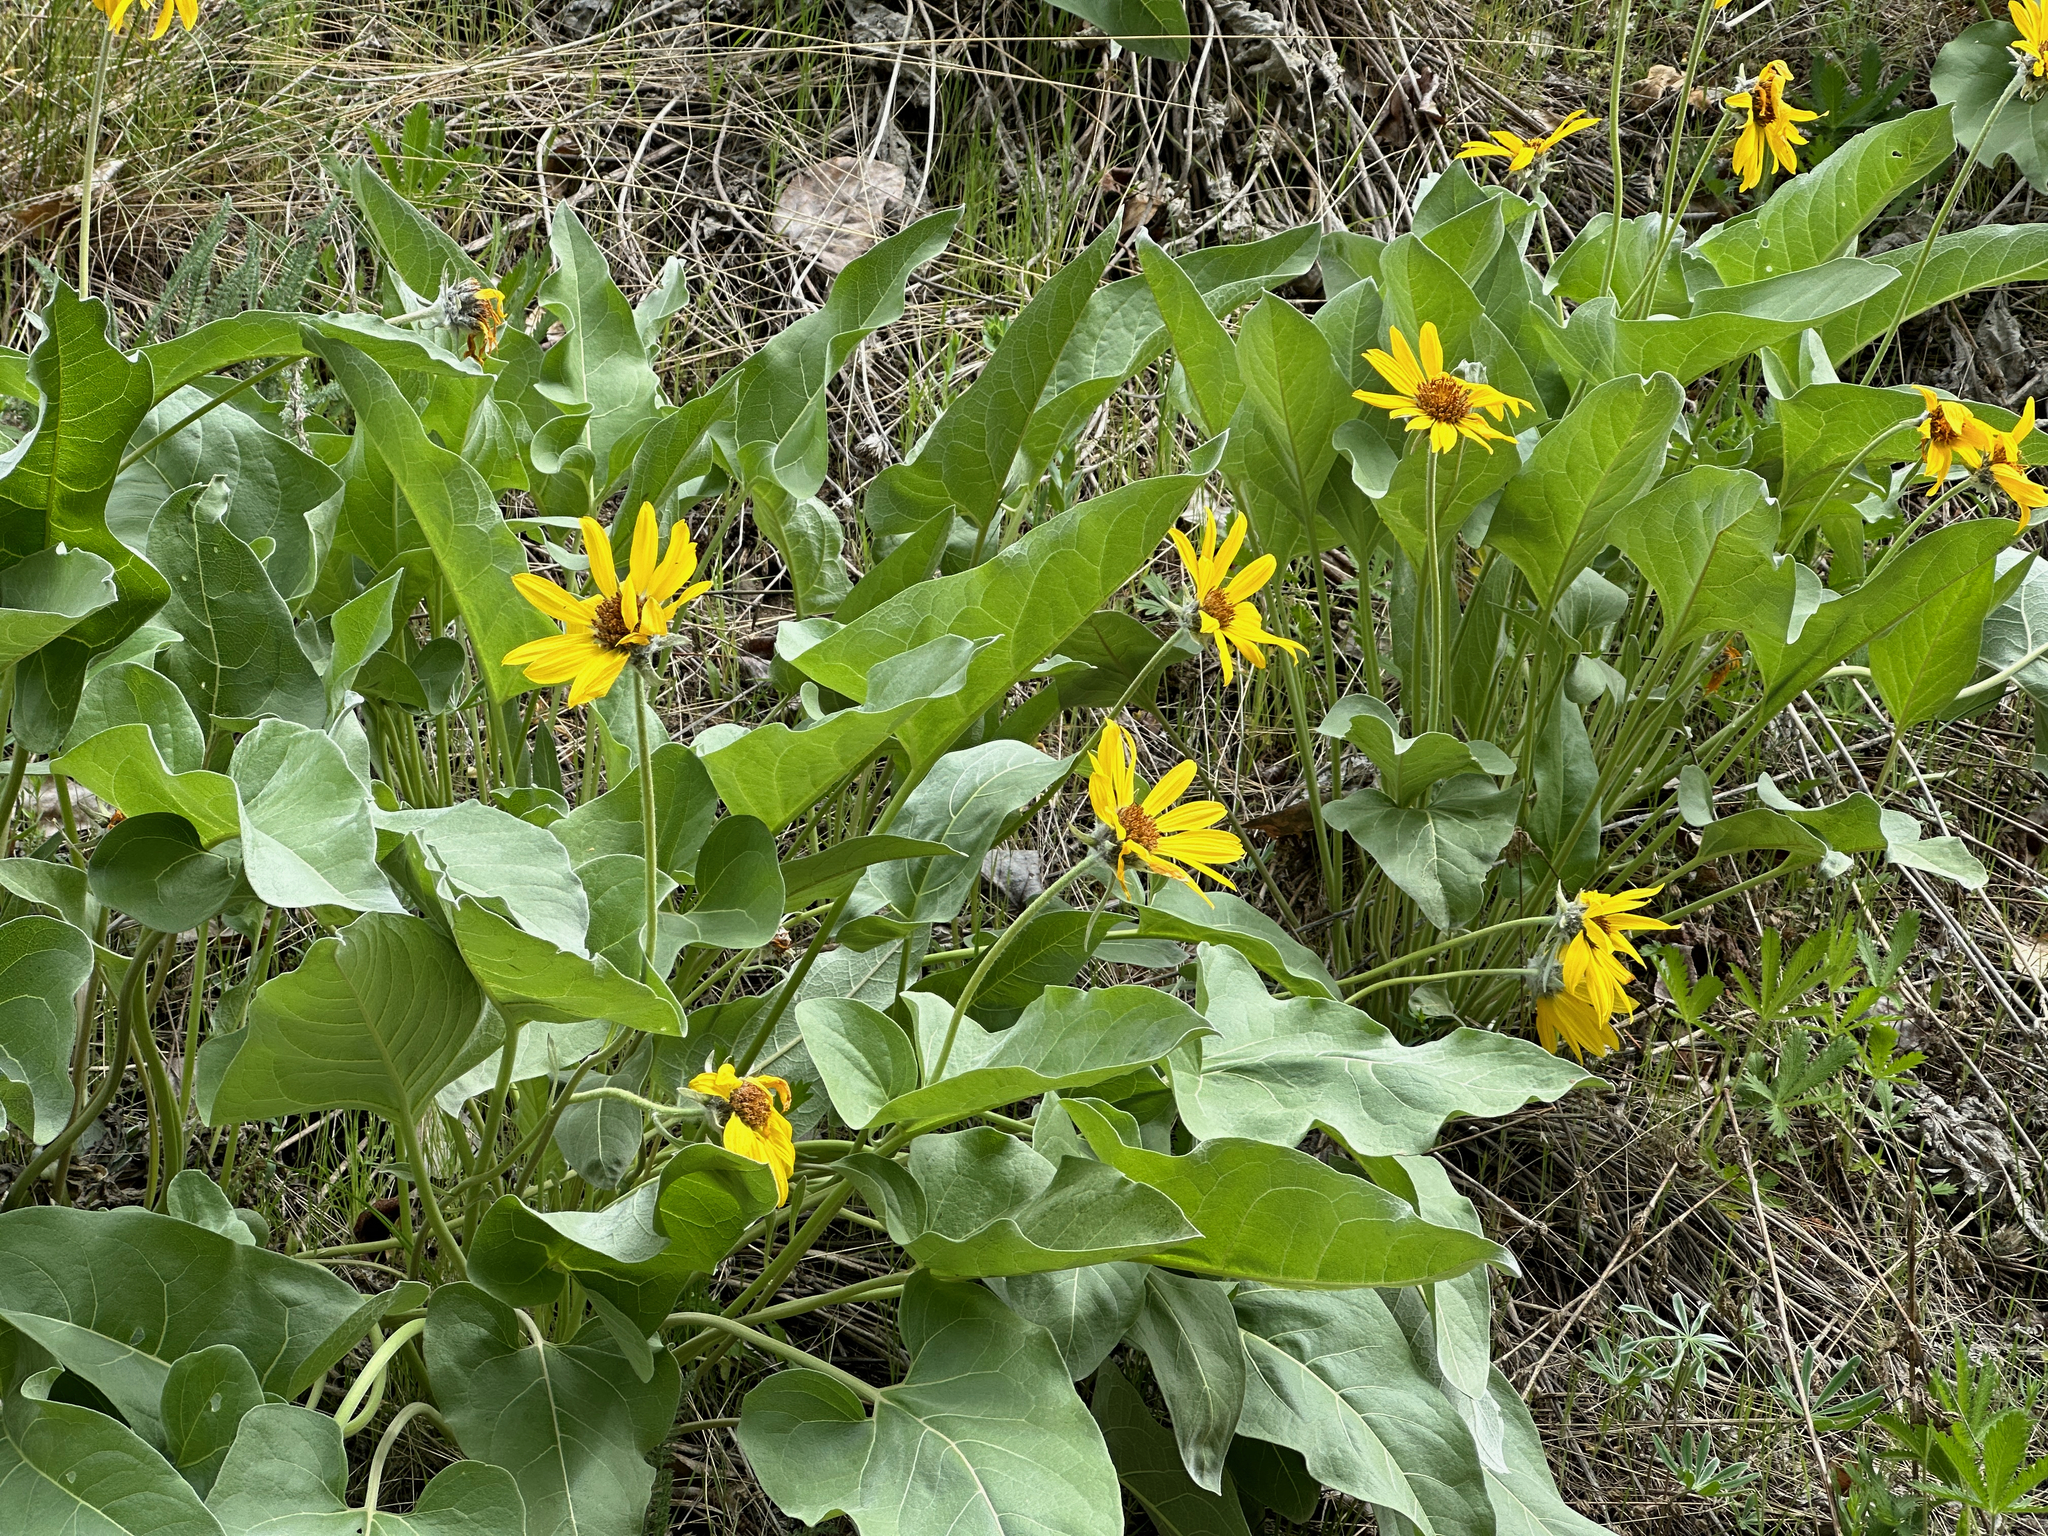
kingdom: Plantae
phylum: Tracheophyta
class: Magnoliopsida
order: Asterales
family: Asteraceae
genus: Wyethia
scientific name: Wyethia sagittata
